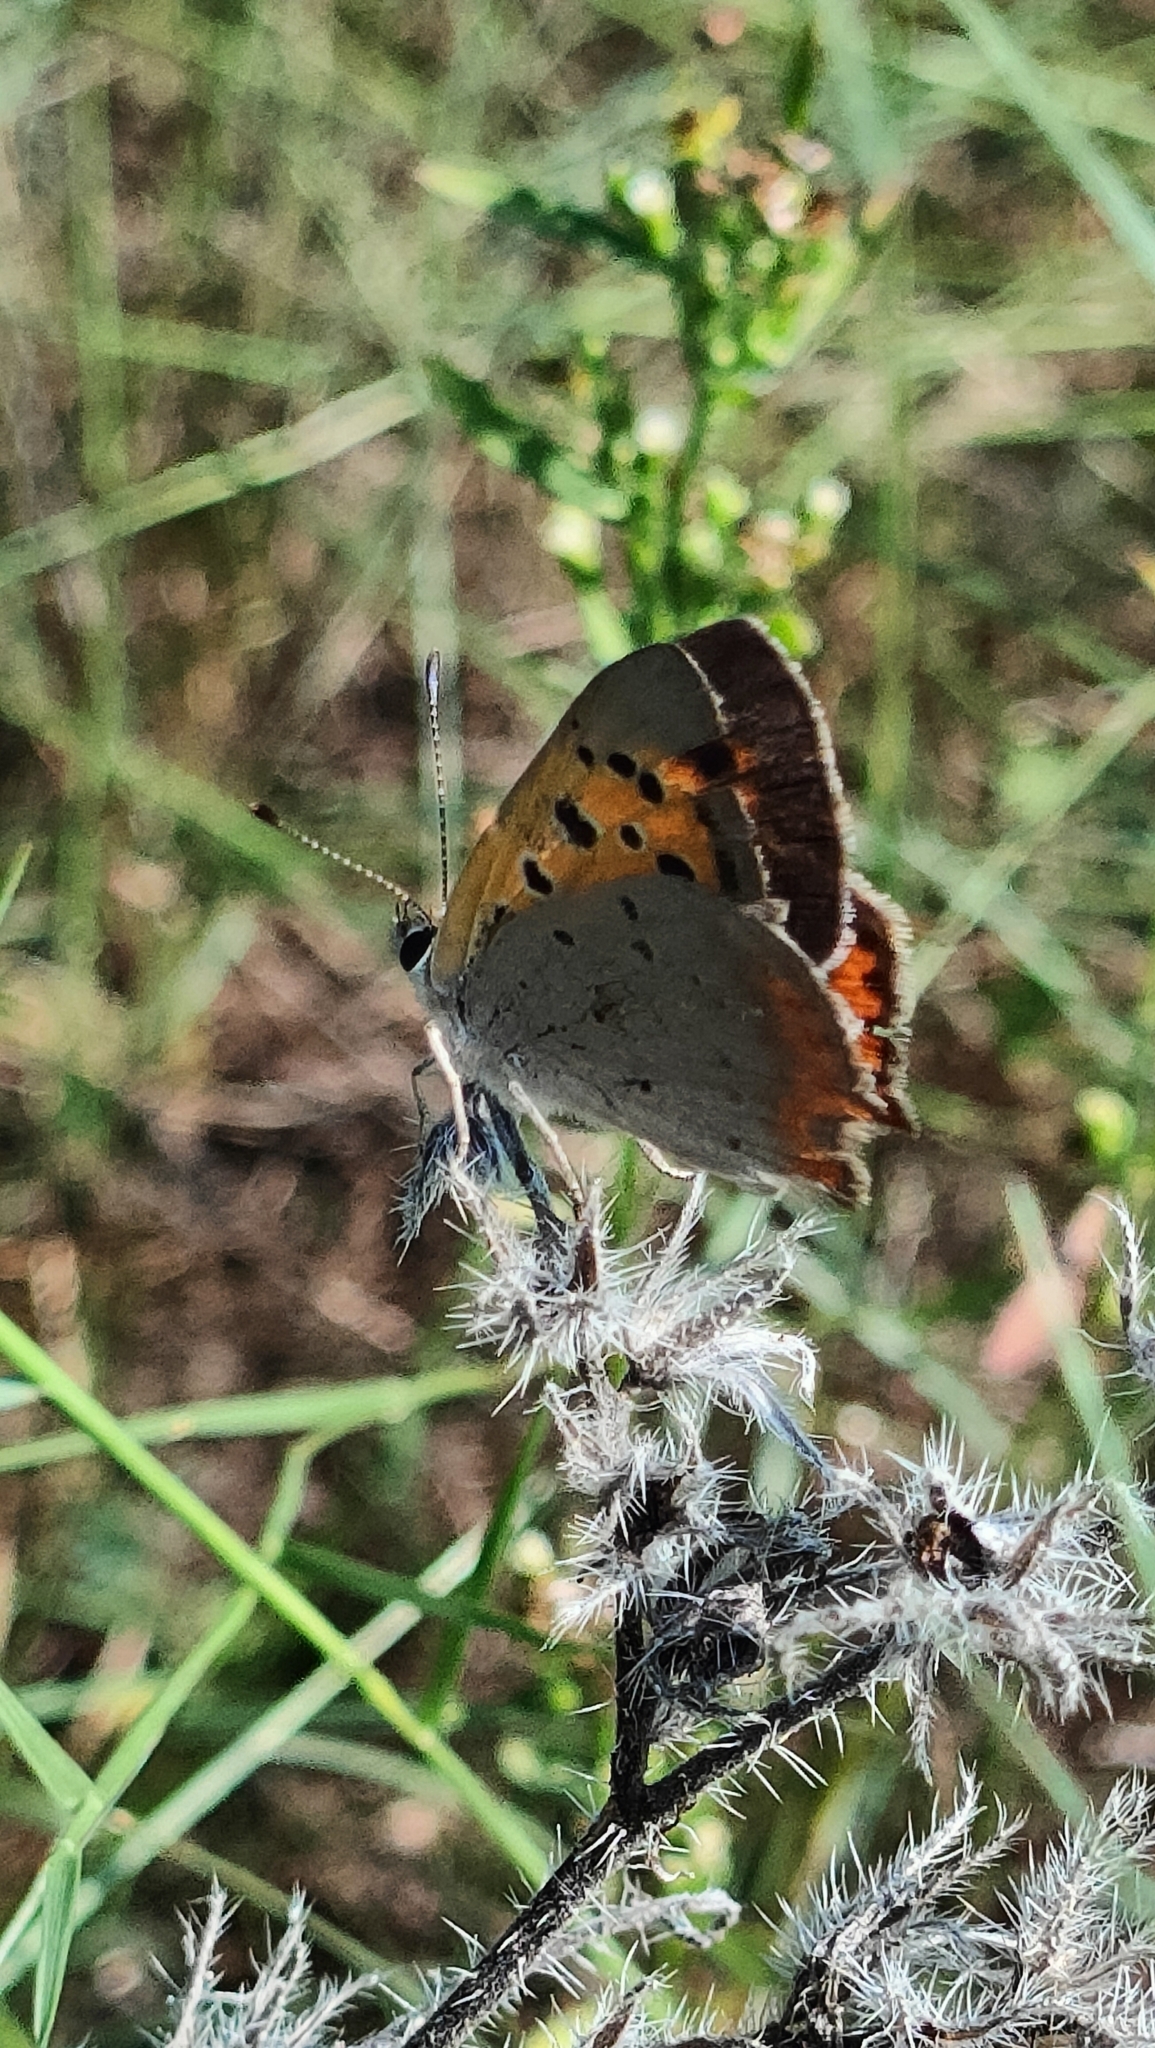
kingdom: Animalia
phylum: Arthropoda
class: Insecta
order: Lepidoptera
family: Lycaenidae
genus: Lycaena
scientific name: Lycaena phlaeas
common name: Small copper
